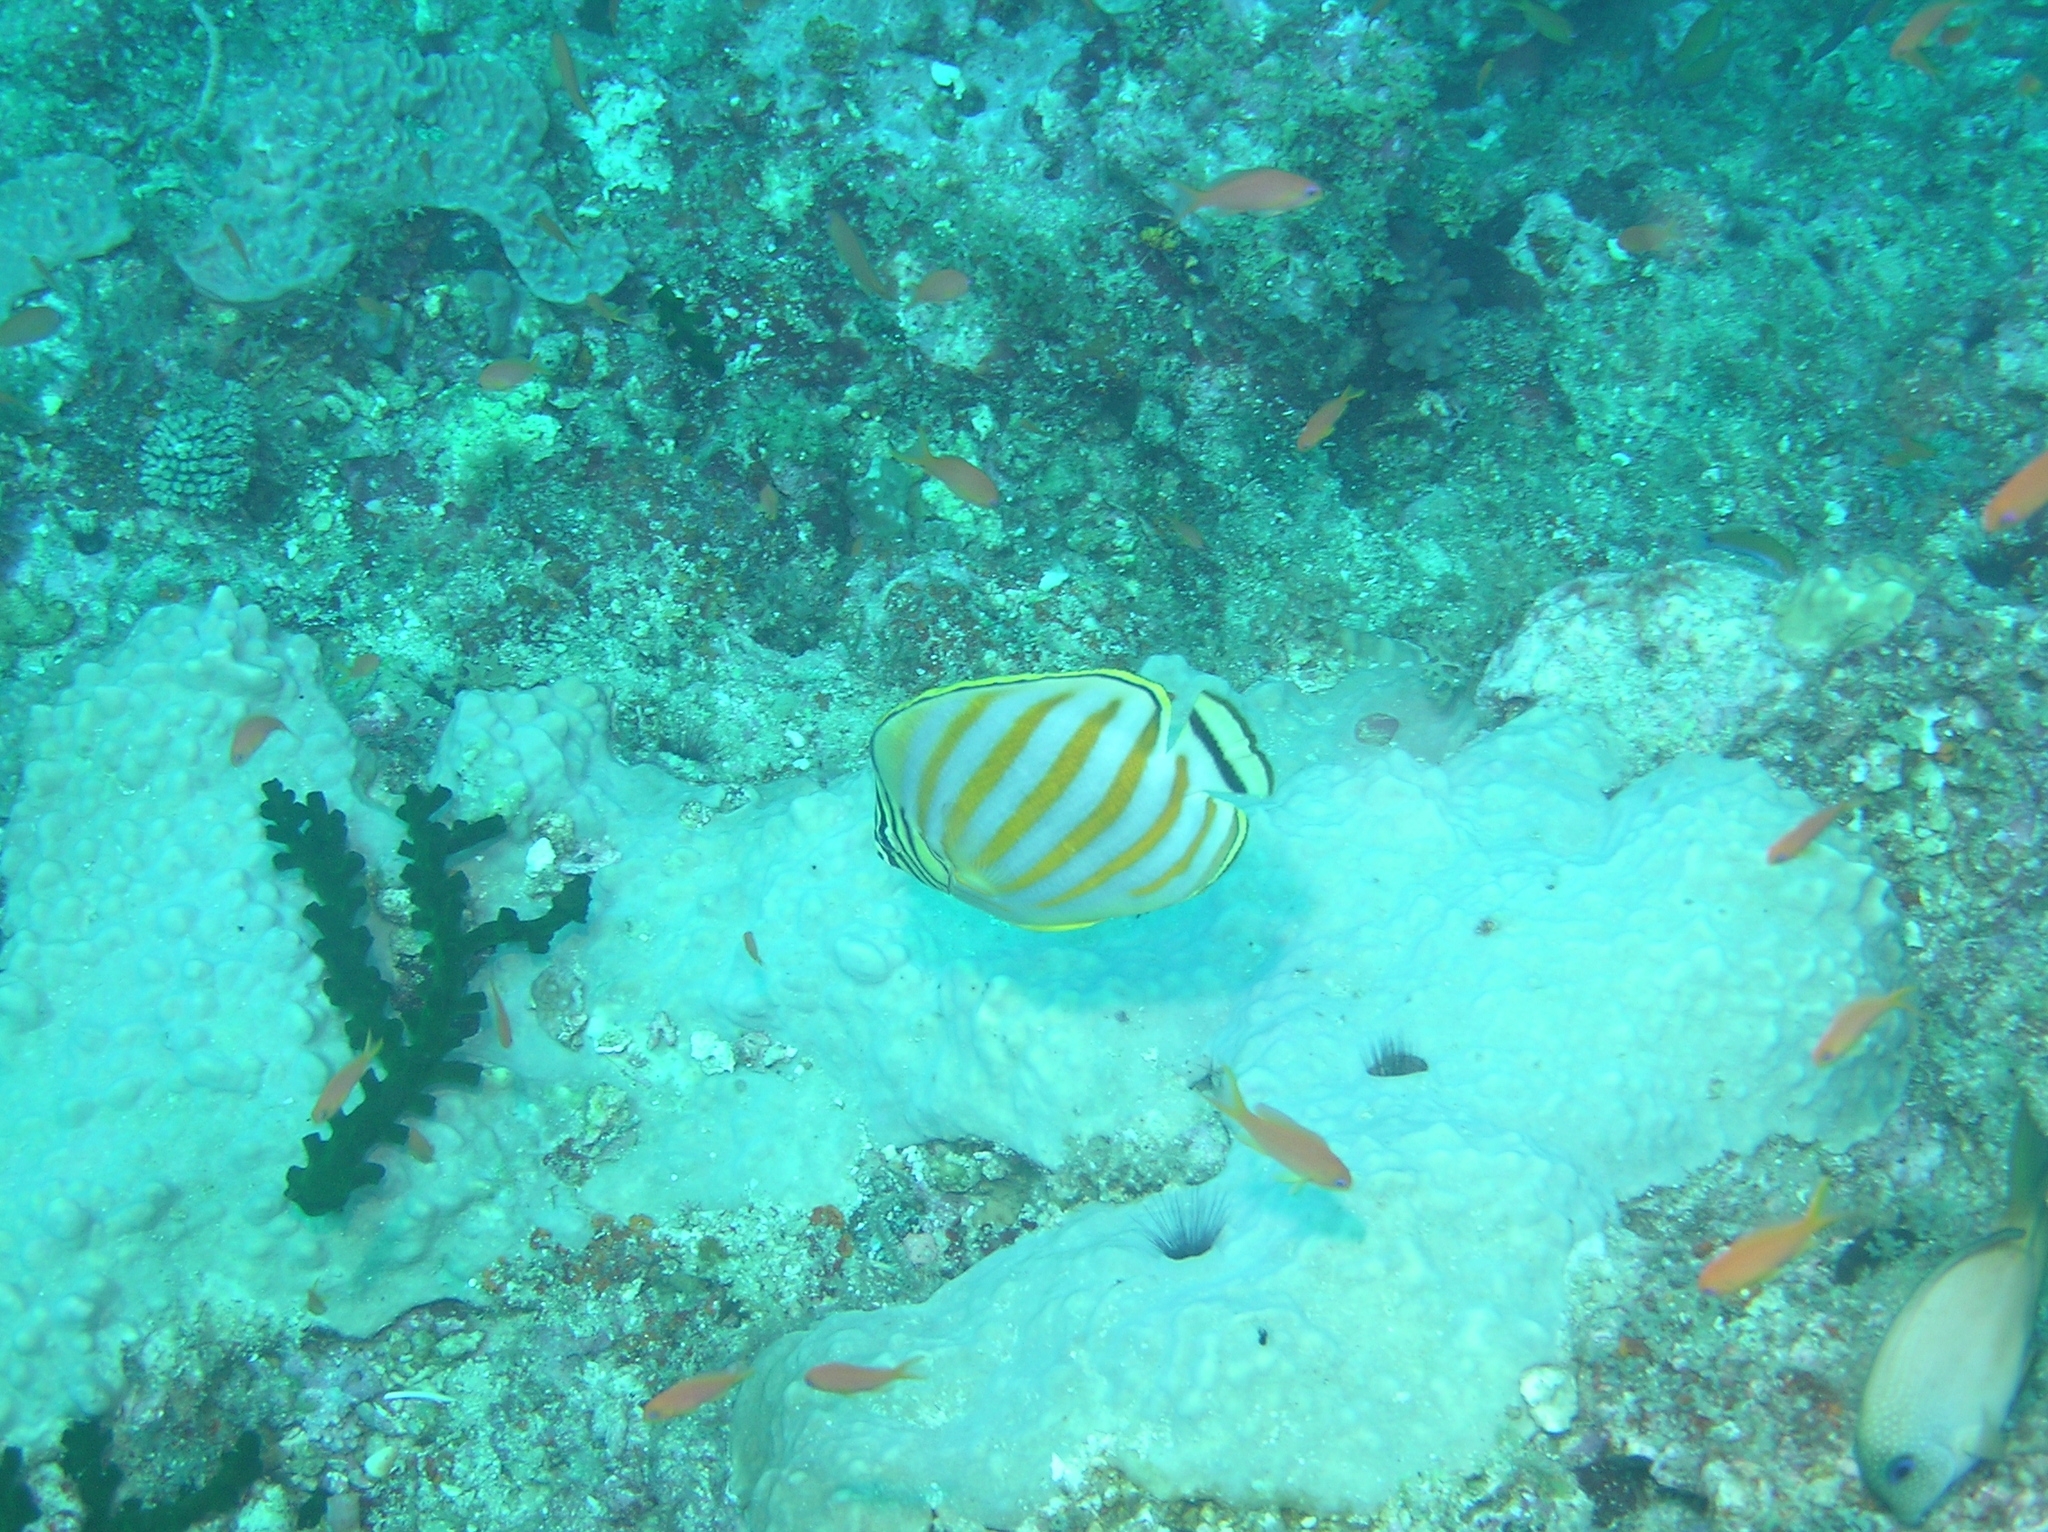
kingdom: Animalia
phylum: Chordata
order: Perciformes
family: Chaetodontidae
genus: Chaetodon
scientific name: Chaetodon ornatissimus
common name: Ornate butterflyfish
